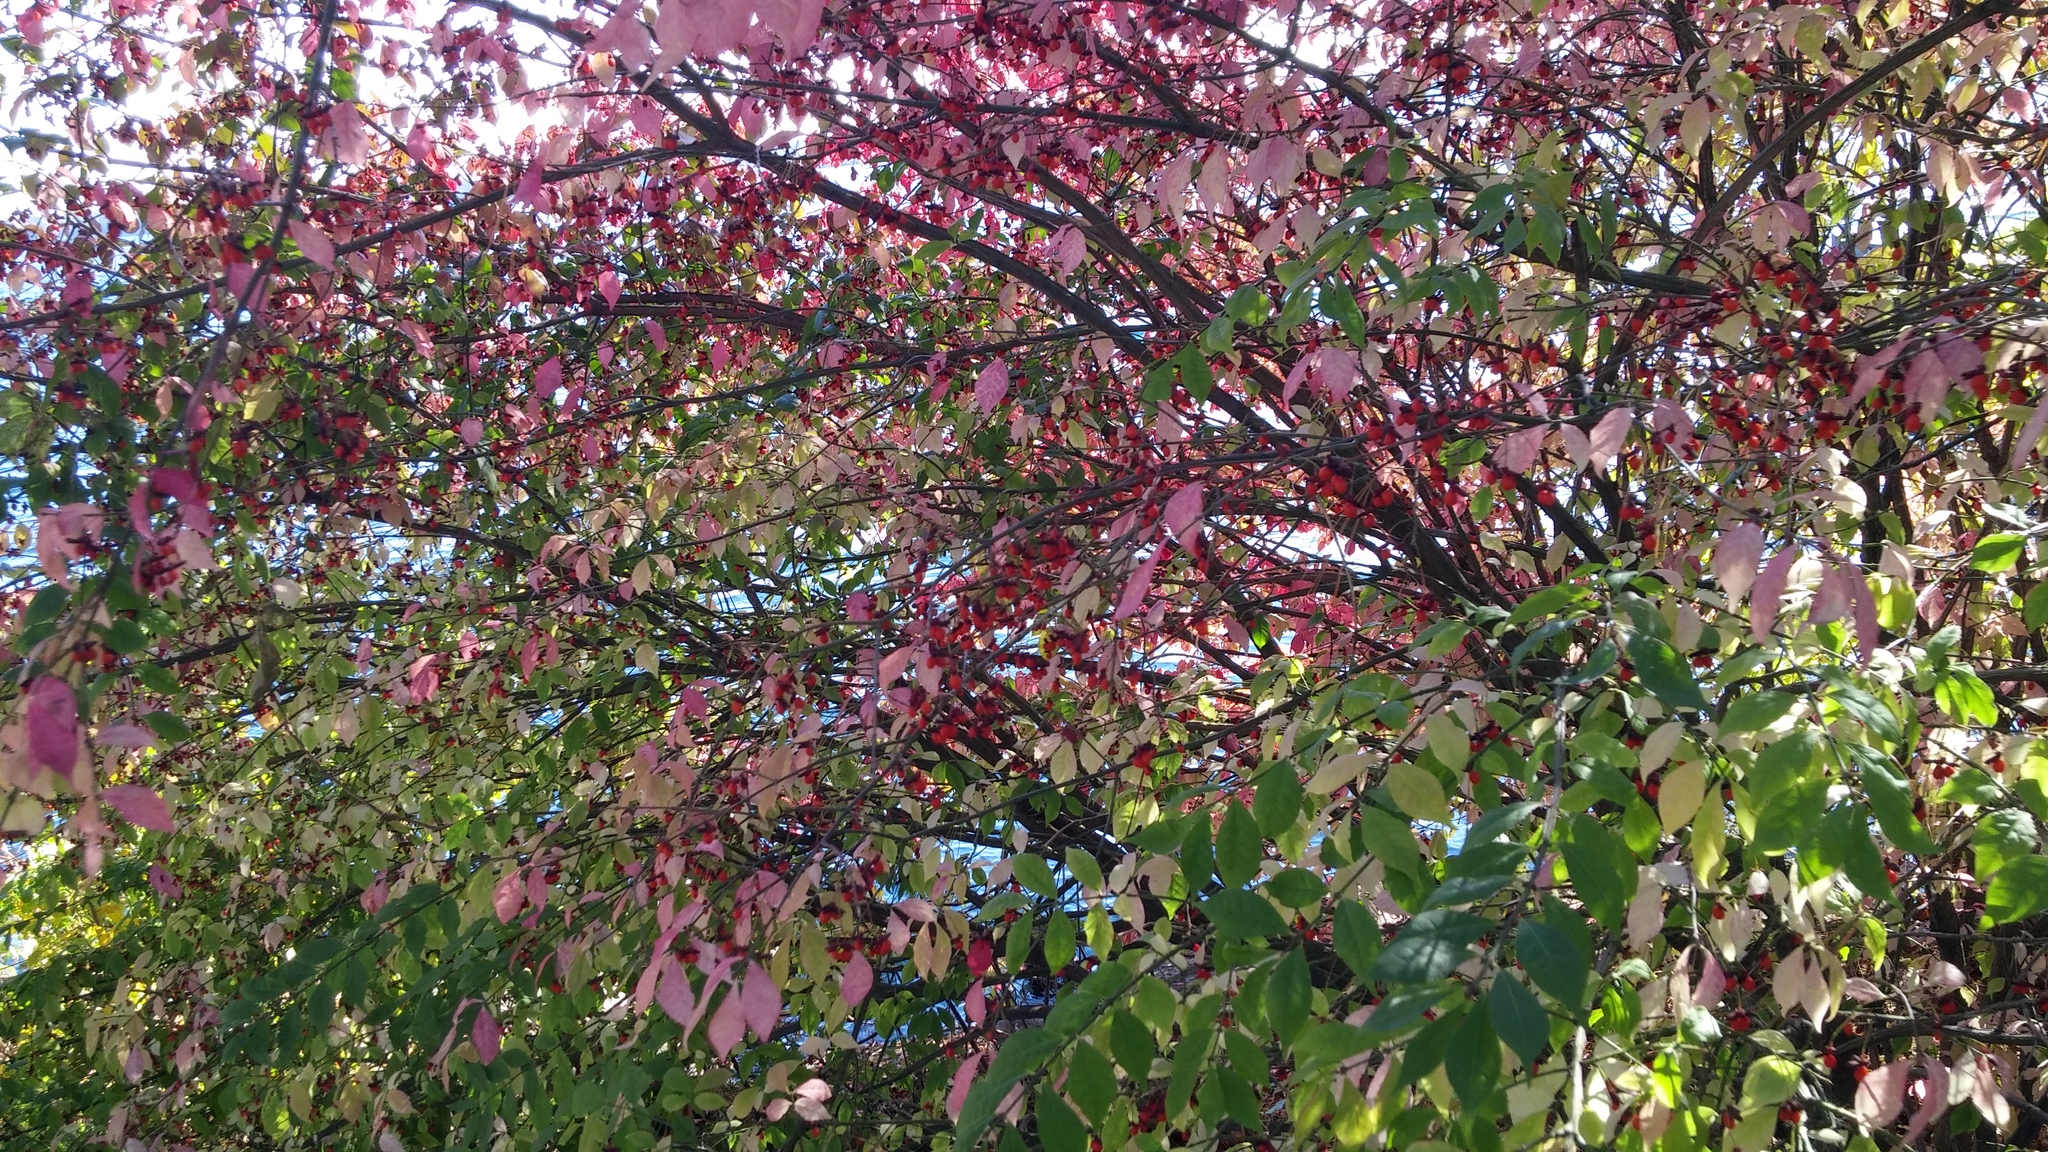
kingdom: Plantae
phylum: Tracheophyta
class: Magnoliopsida
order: Celastrales
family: Celastraceae
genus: Euonymus
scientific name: Euonymus alatus
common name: Winged euonymus
